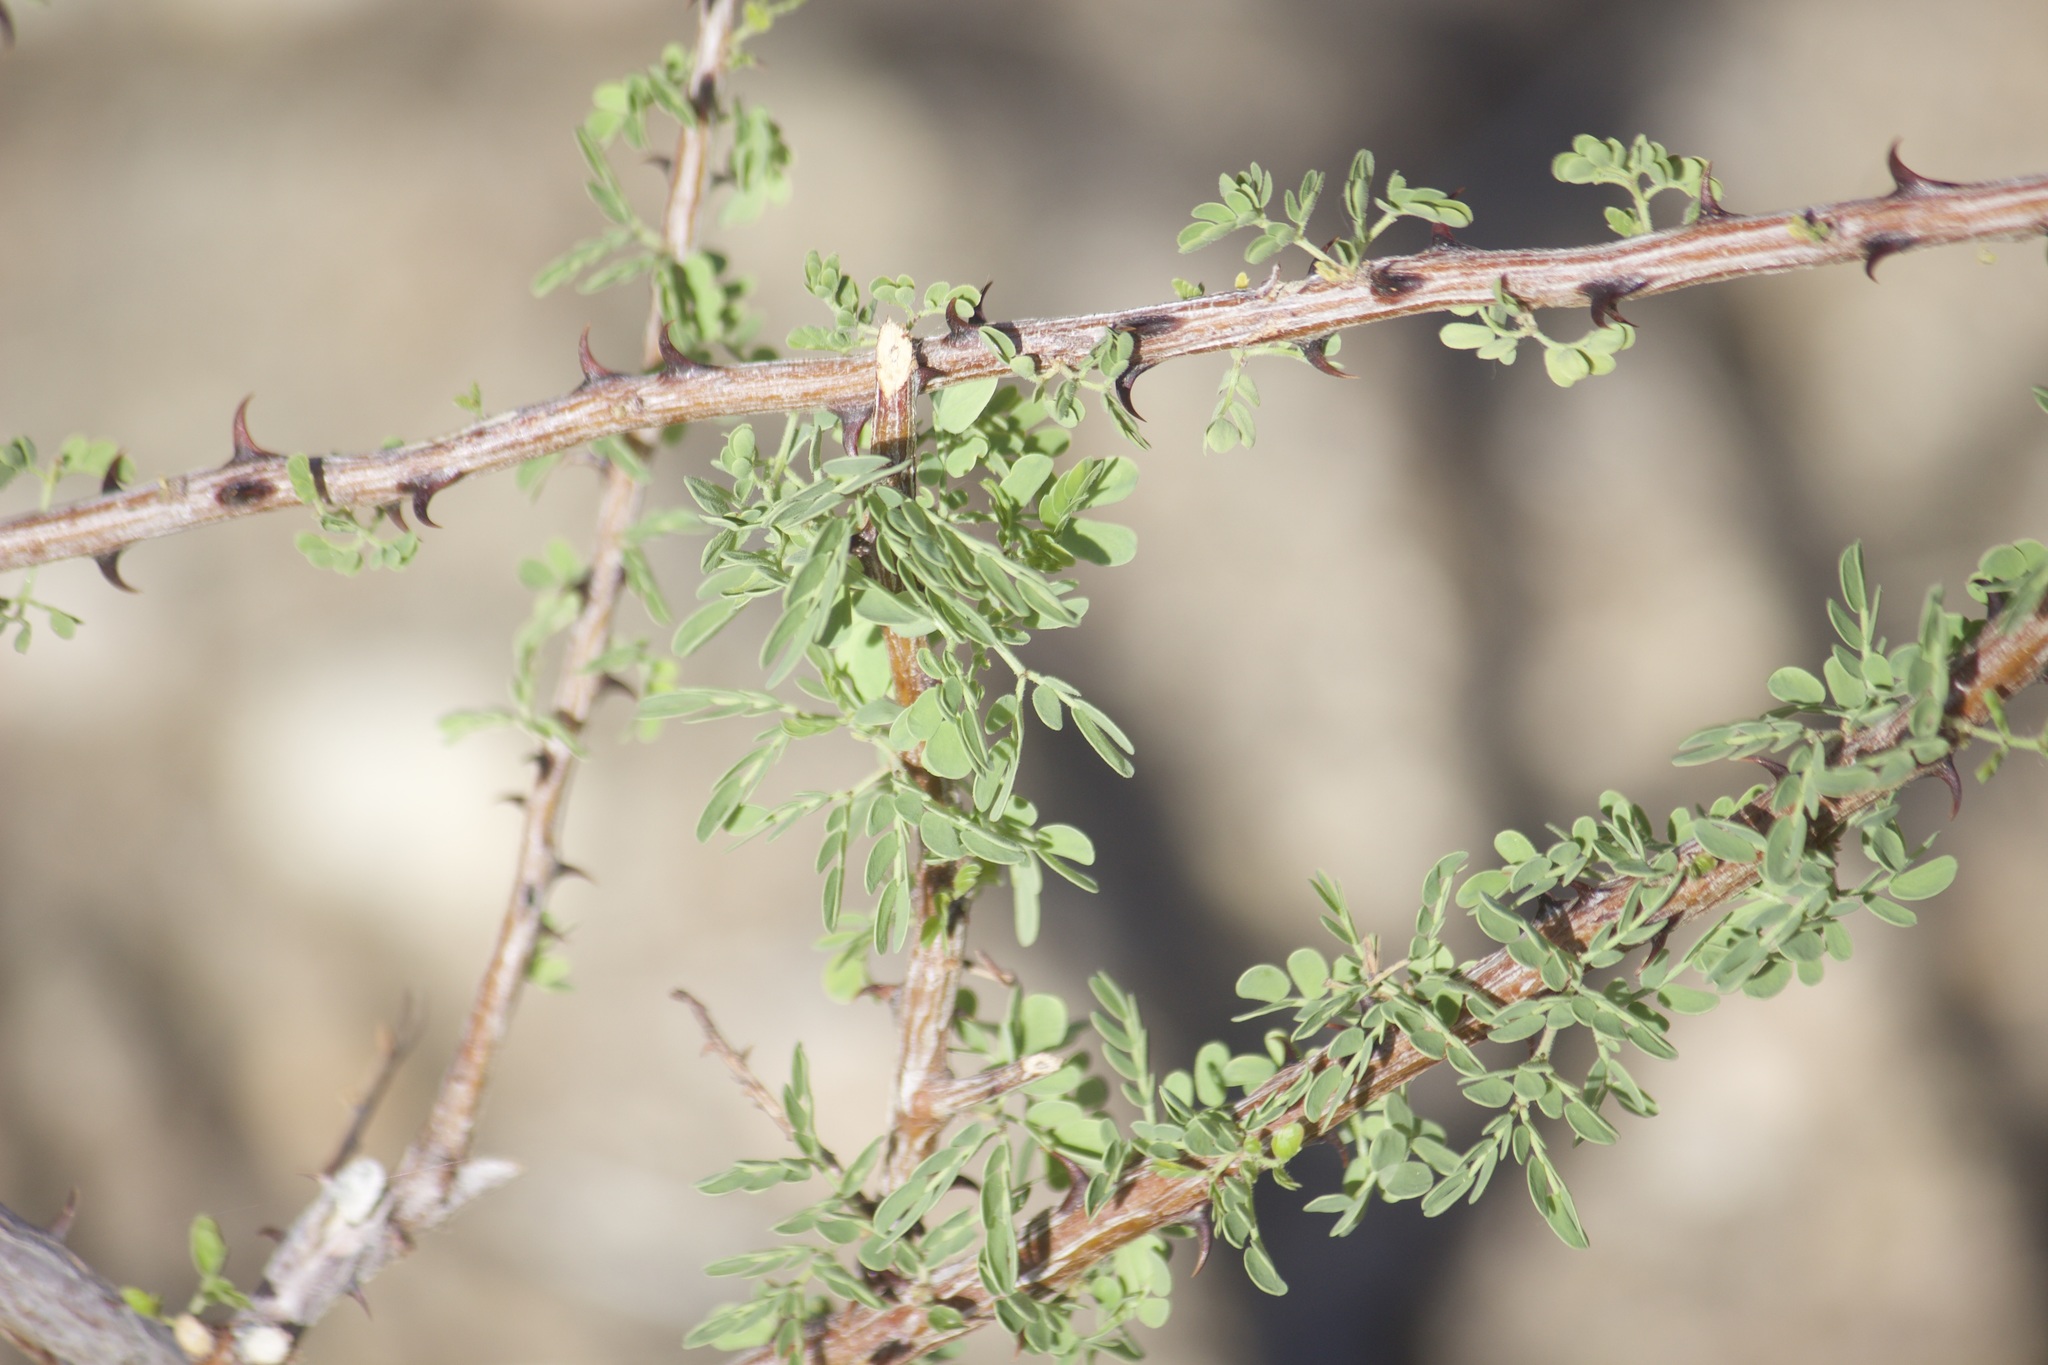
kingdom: Plantae
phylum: Tracheophyta
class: Magnoliopsida
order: Fabales
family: Fabaceae
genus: Senegalia
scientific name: Senegalia greggii
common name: Texas-mimosa
